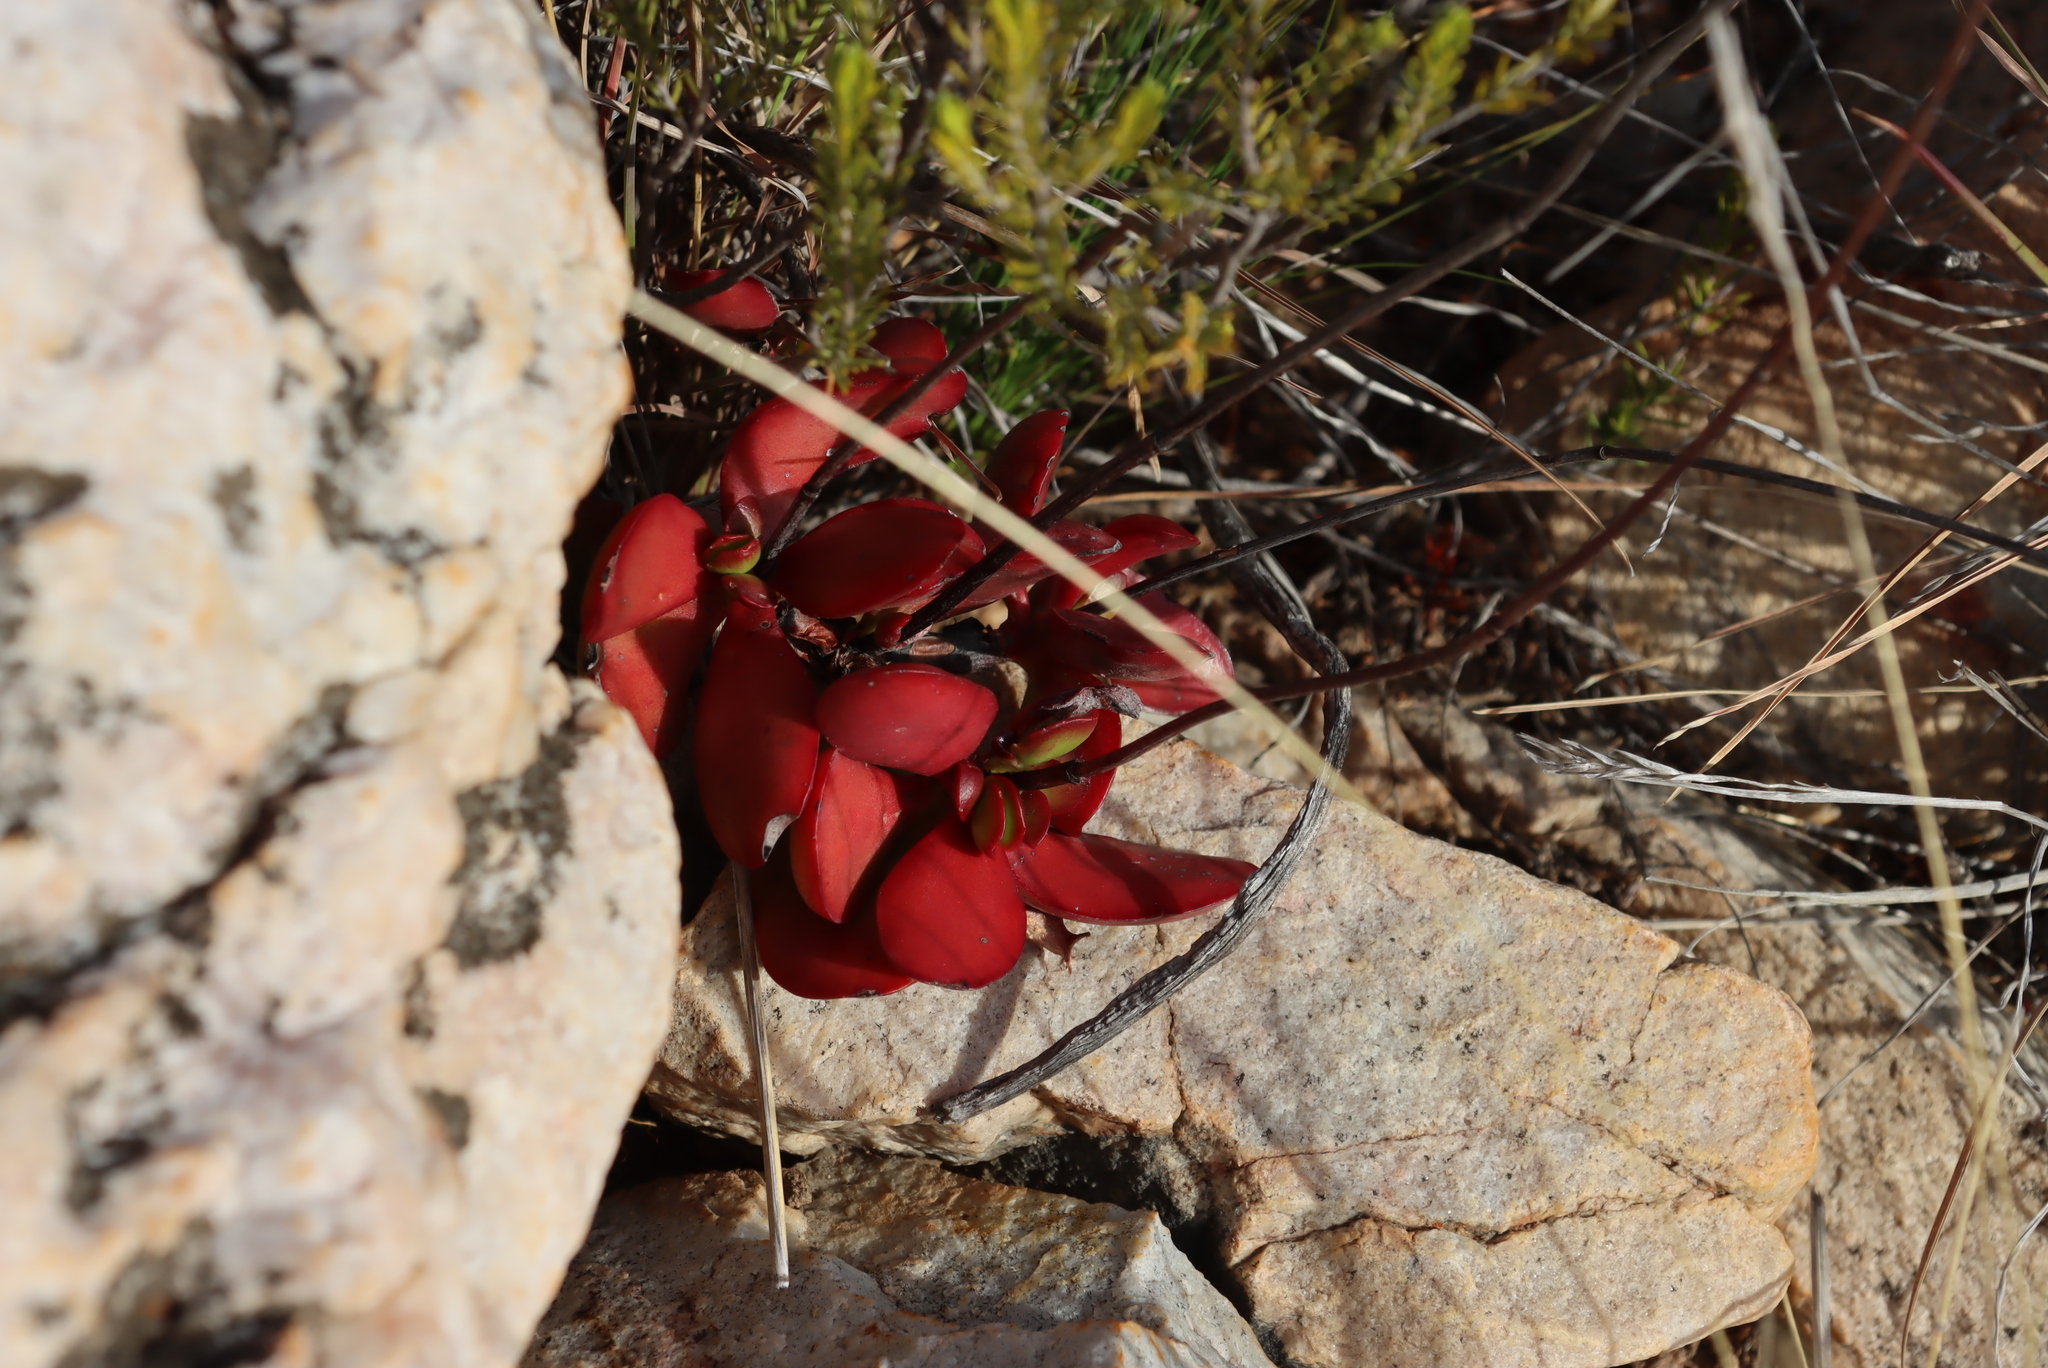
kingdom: Plantae
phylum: Tracheophyta
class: Magnoliopsida
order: Saxifragales
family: Crassulaceae
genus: Crassula
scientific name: Crassula nudicaulis
